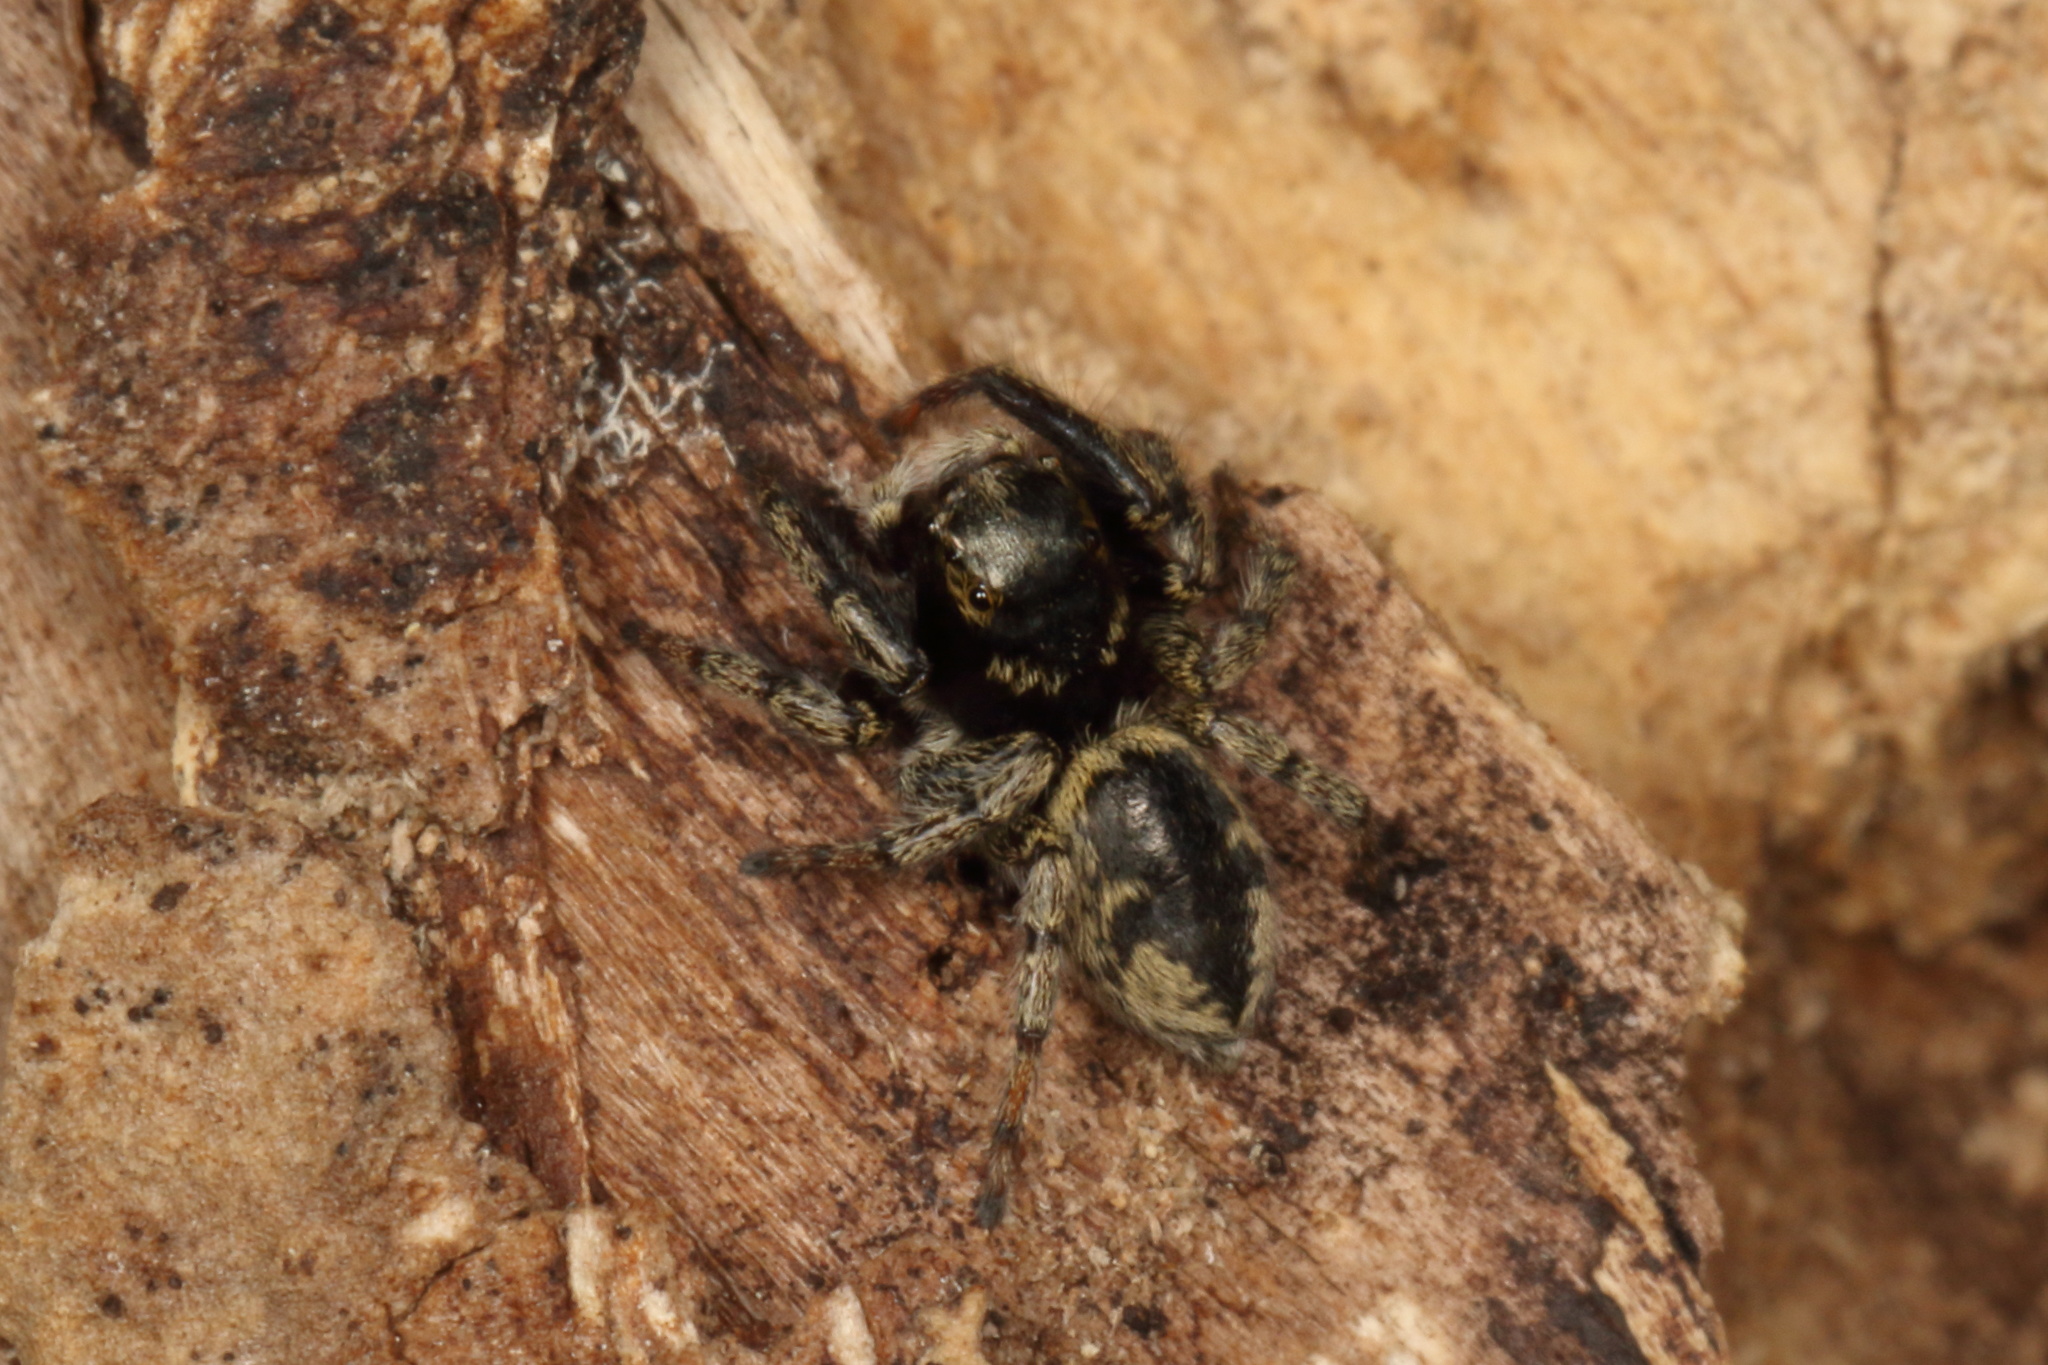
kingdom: Animalia
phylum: Arthropoda
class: Arachnida
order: Araneae
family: Salticidae
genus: Marpissa
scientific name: Marpissa marina
